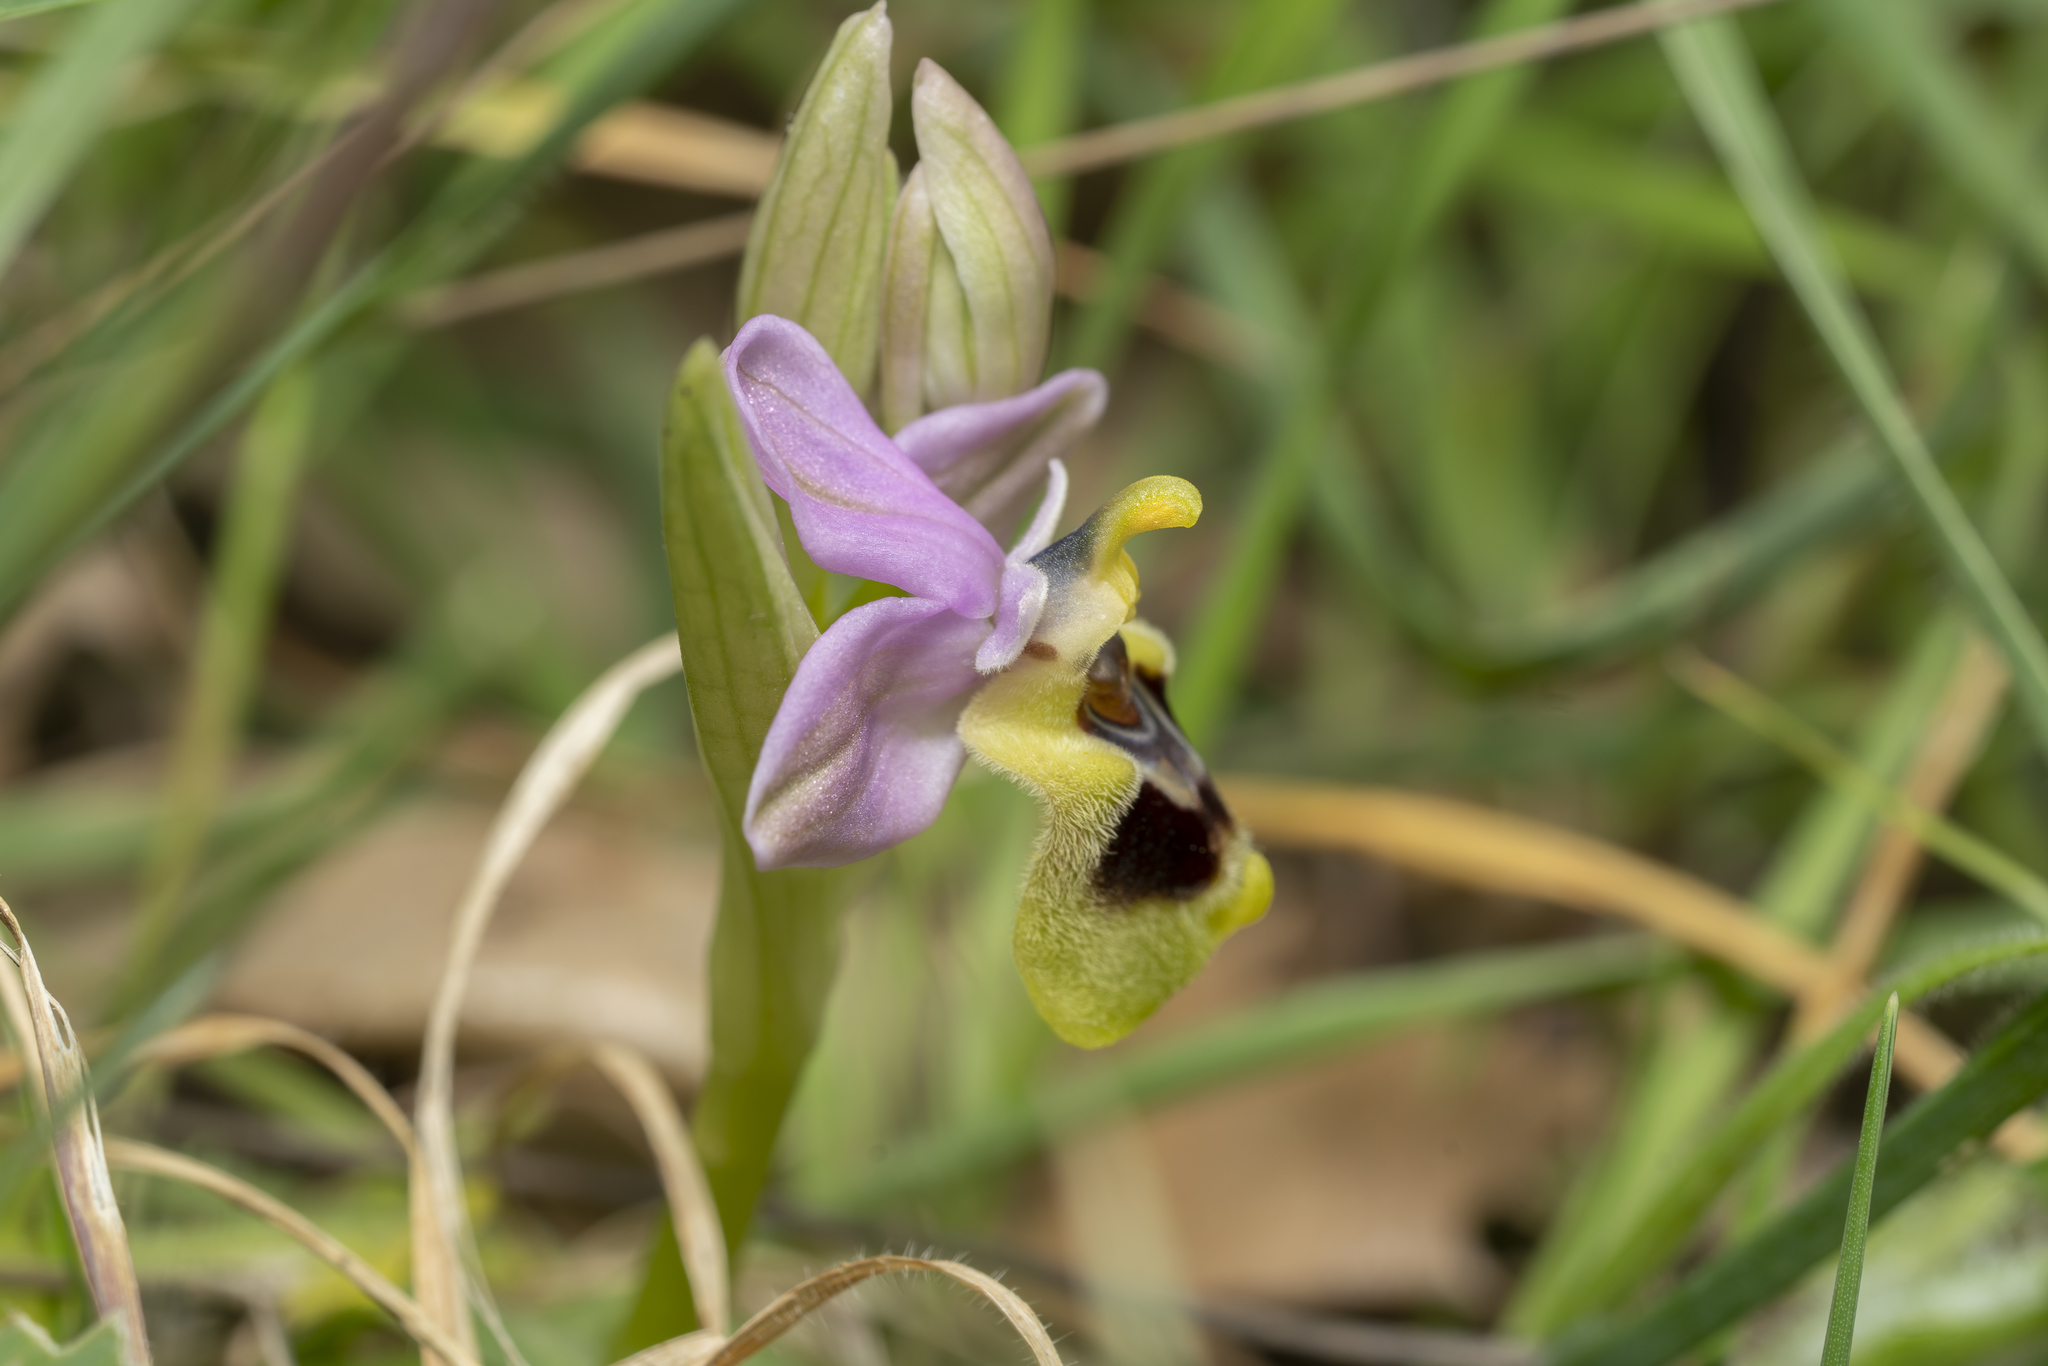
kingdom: Plantae
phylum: Tracheophyta
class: Liliopsida
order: Asparagales
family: Orchidaceae
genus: Ophrys
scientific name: Ophrys tenthredinifera
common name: Sawfly orchid
